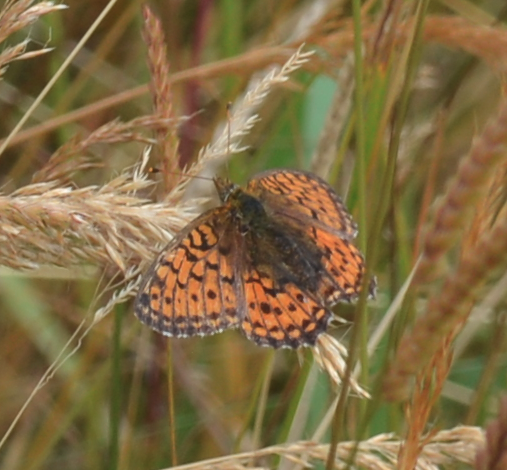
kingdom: Animalia
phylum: Arthropoda
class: Insecta
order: Lepidoptera
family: Nymphalidae
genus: Brenthis
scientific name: Brenthis ino
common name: Lesser marbled fritillary
